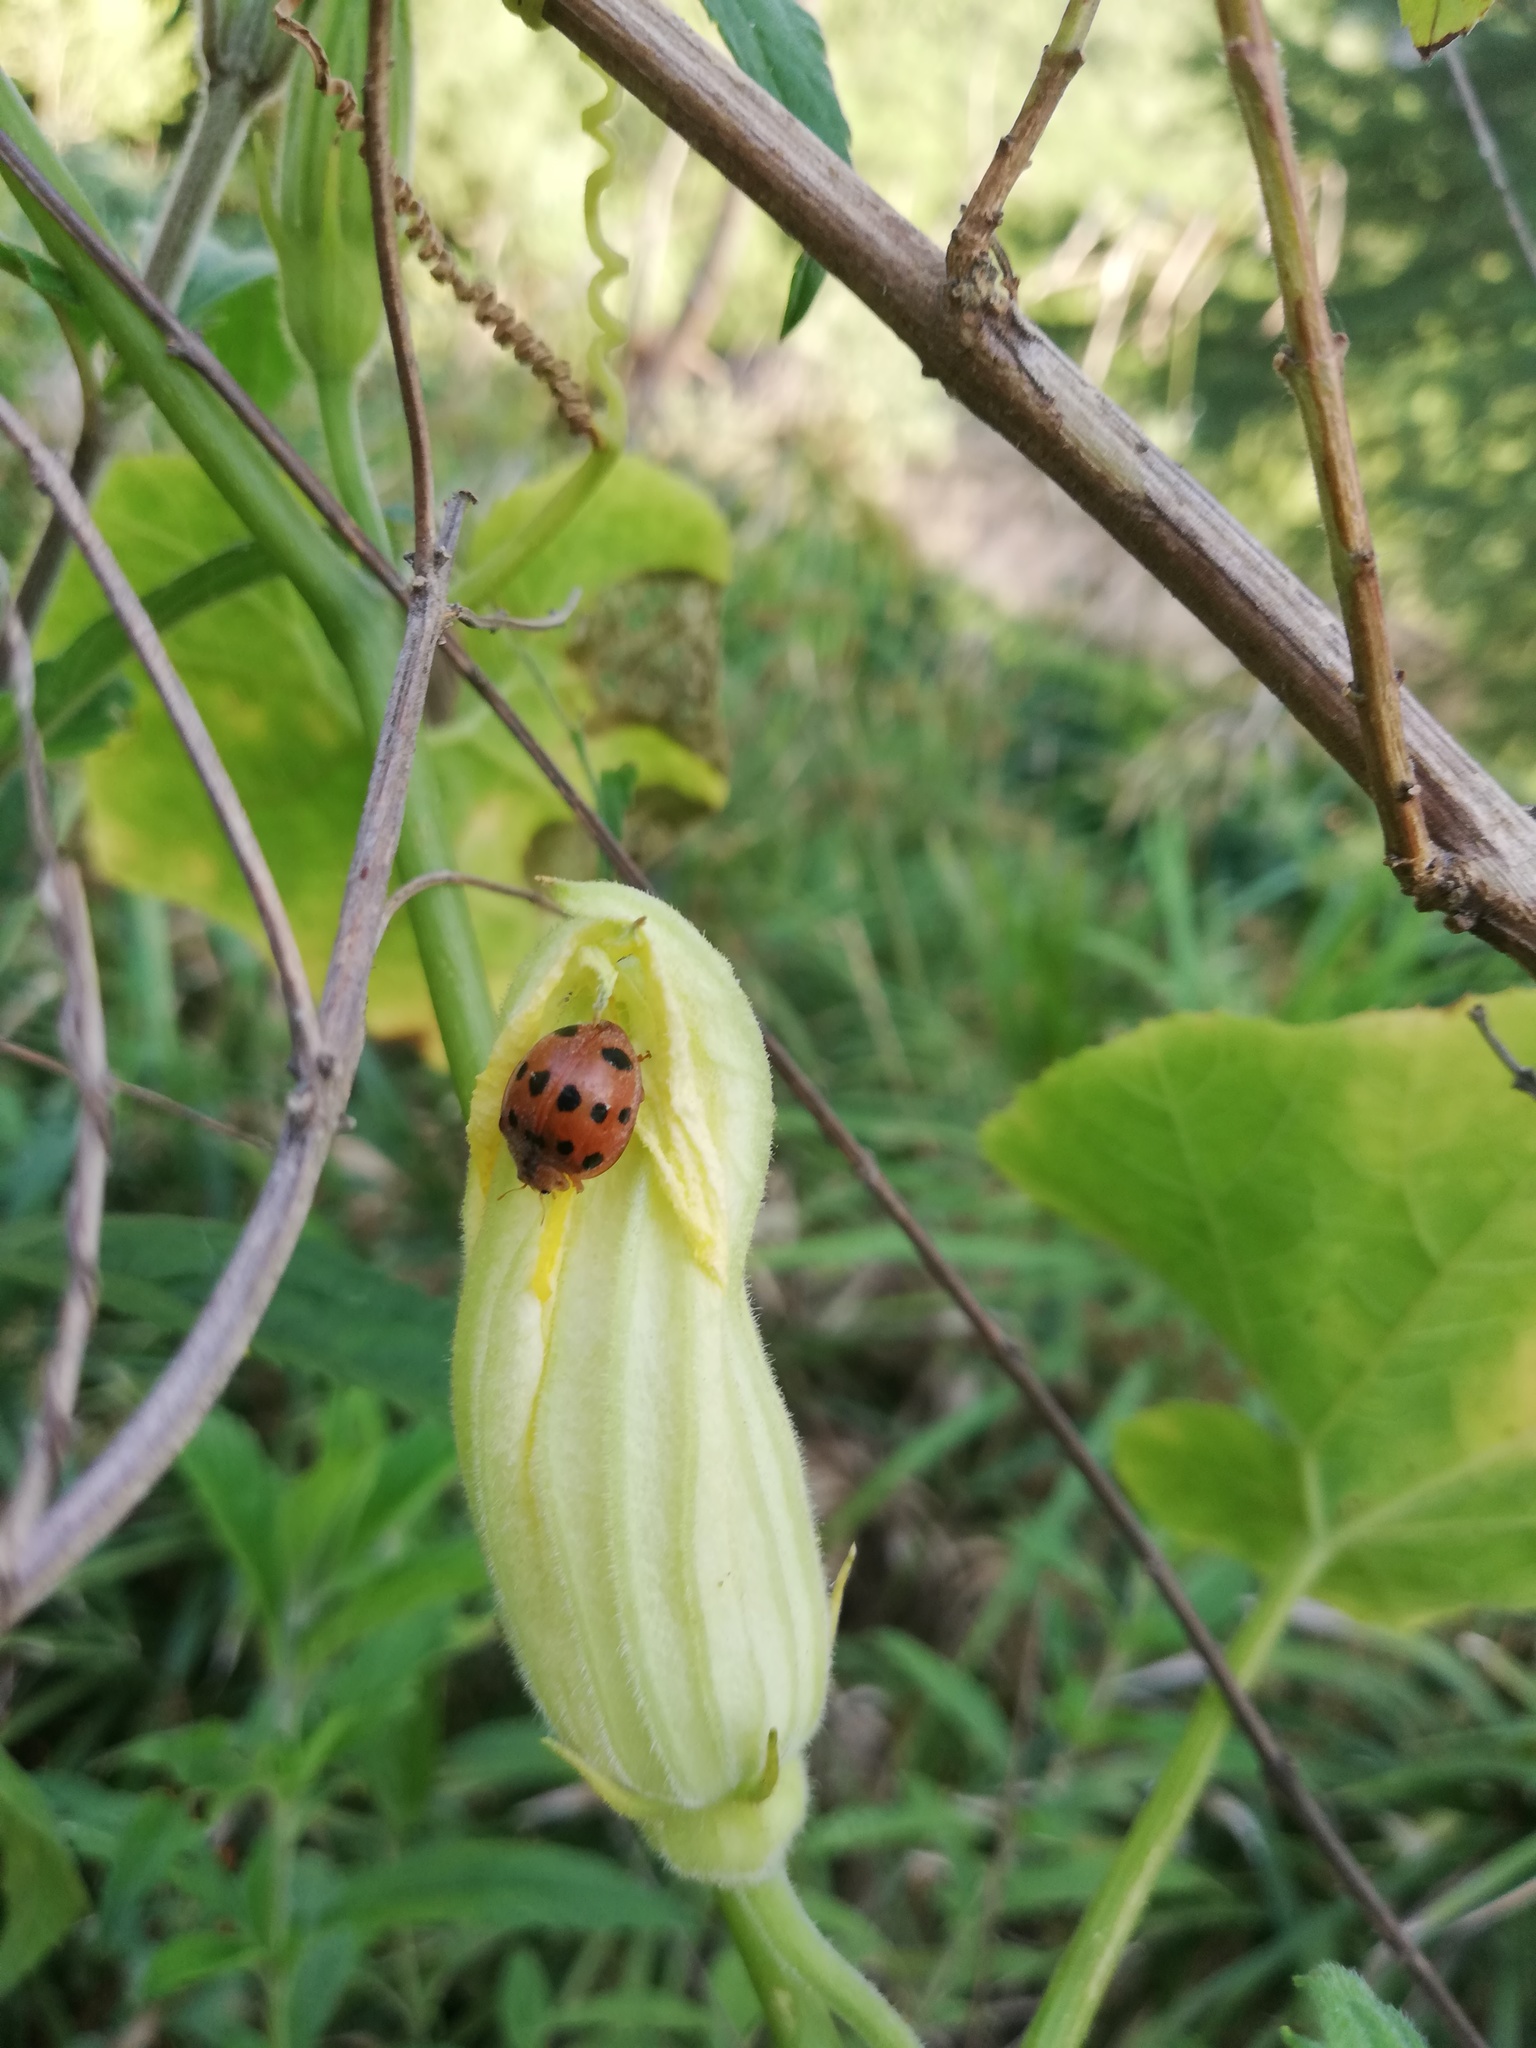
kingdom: Plantae
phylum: Tracheophyta
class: Magnoliopsida
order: Cucurbitales
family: Cucurbitaceae
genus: Cucurbita
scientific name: Cucurbita foetidissima
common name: Buffalo gourd
